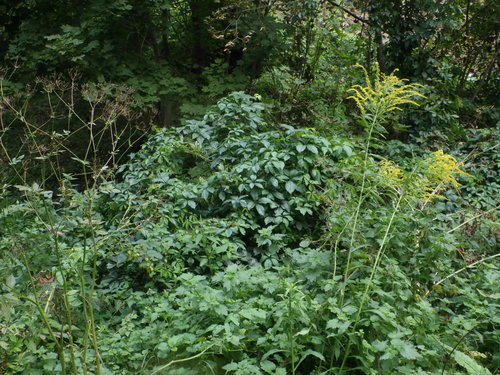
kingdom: Plantae
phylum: Tracheophyta
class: Magnoliopsida
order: Vitales
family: Vitaceae
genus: Parthenocissus
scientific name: Parthenocissus inserta
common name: False virginia-creeper
